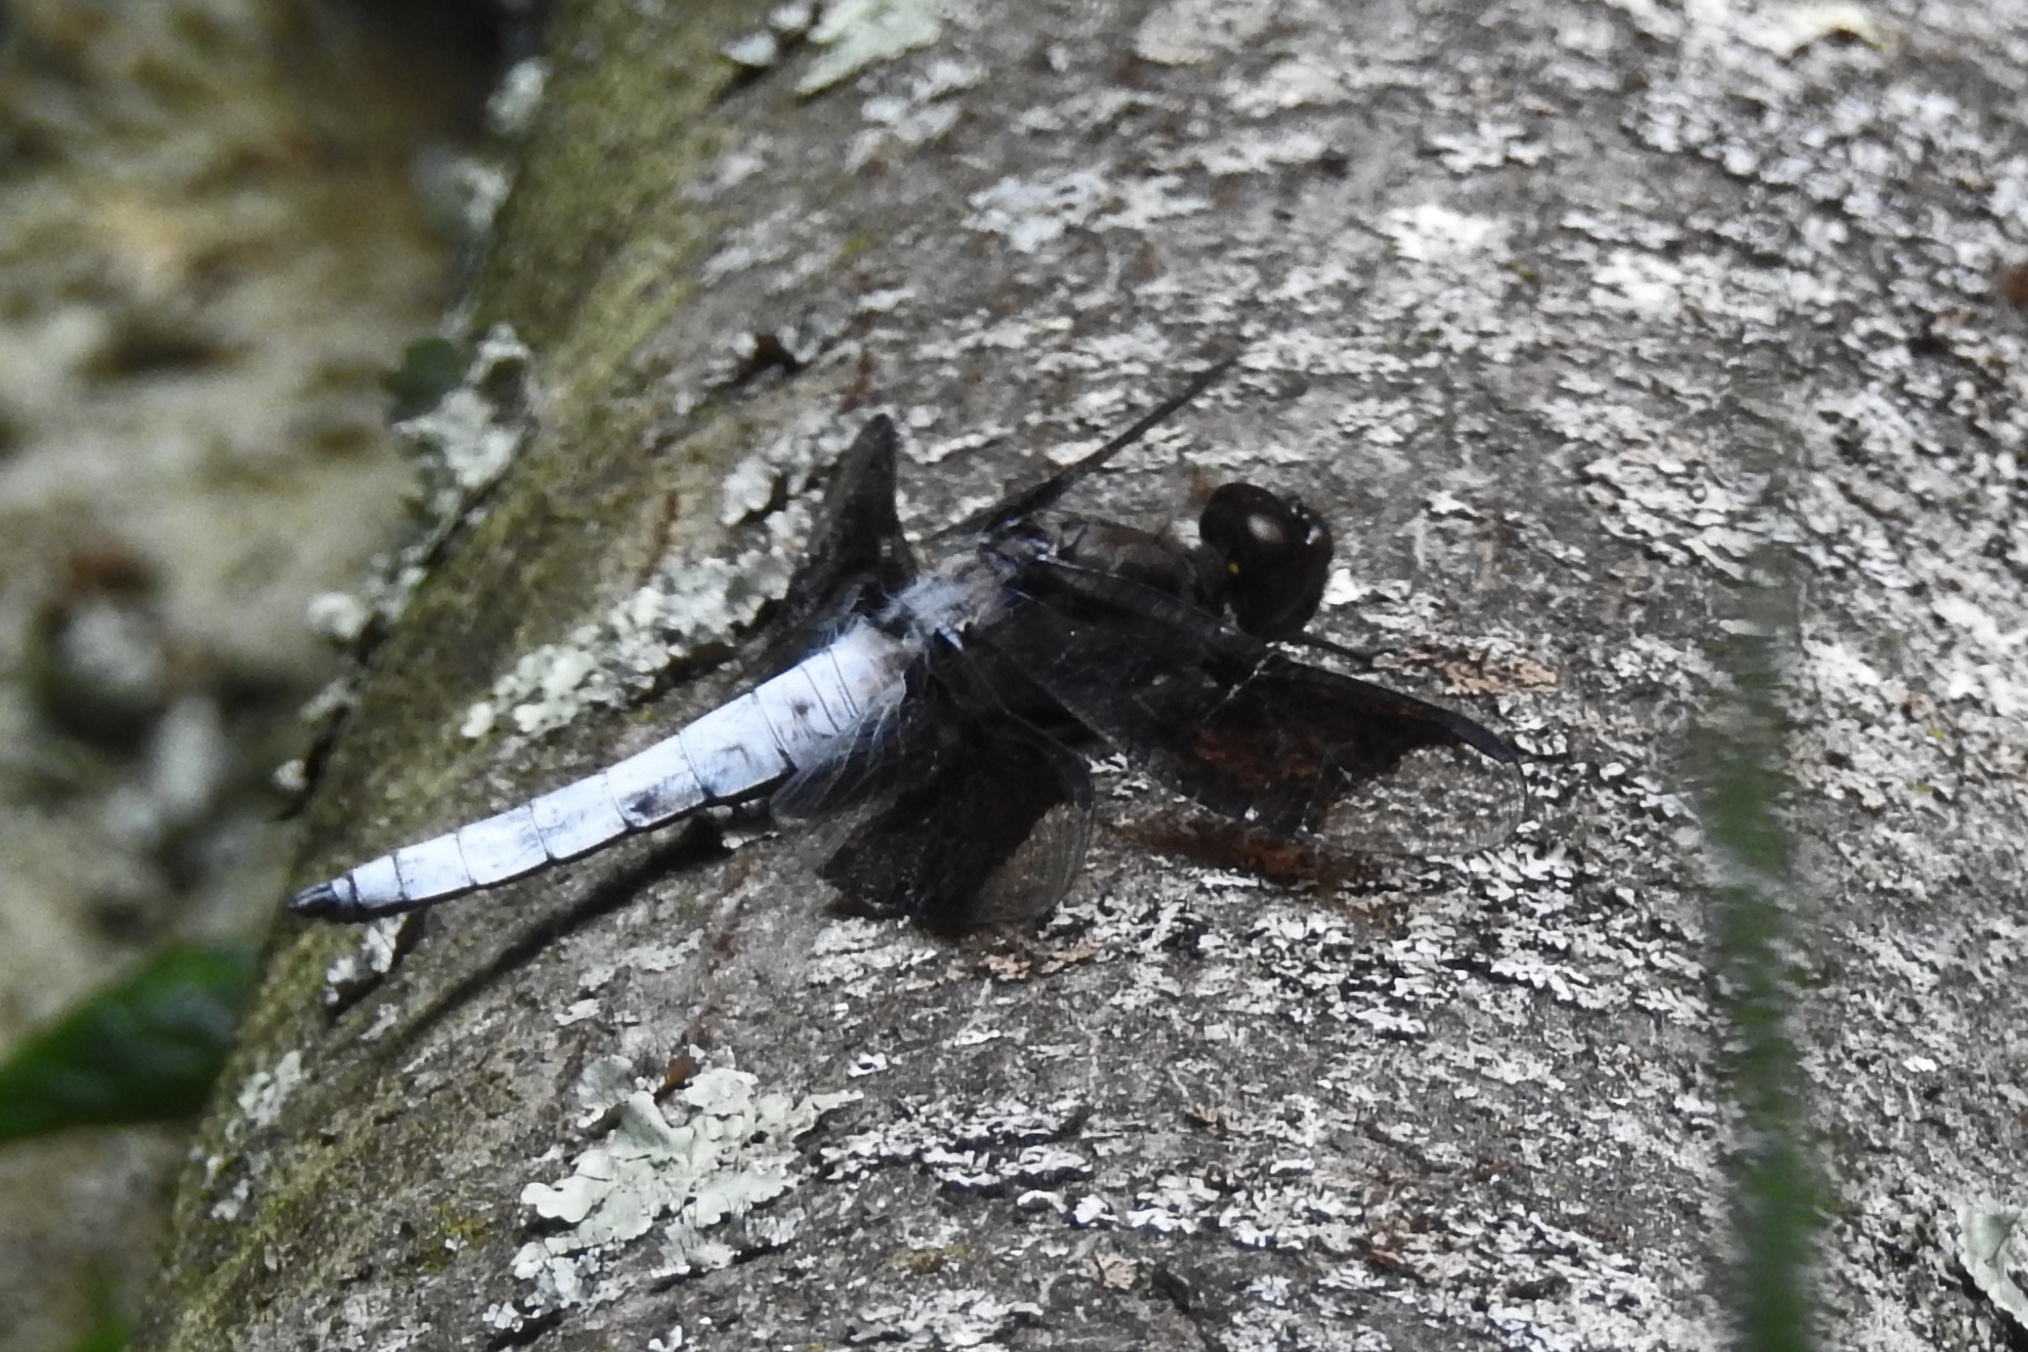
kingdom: Animalia
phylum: Arthropoda
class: Insecta
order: Odonata
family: Libellulidae
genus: Plathemis
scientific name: Plathemis lydia
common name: Common whitetail
